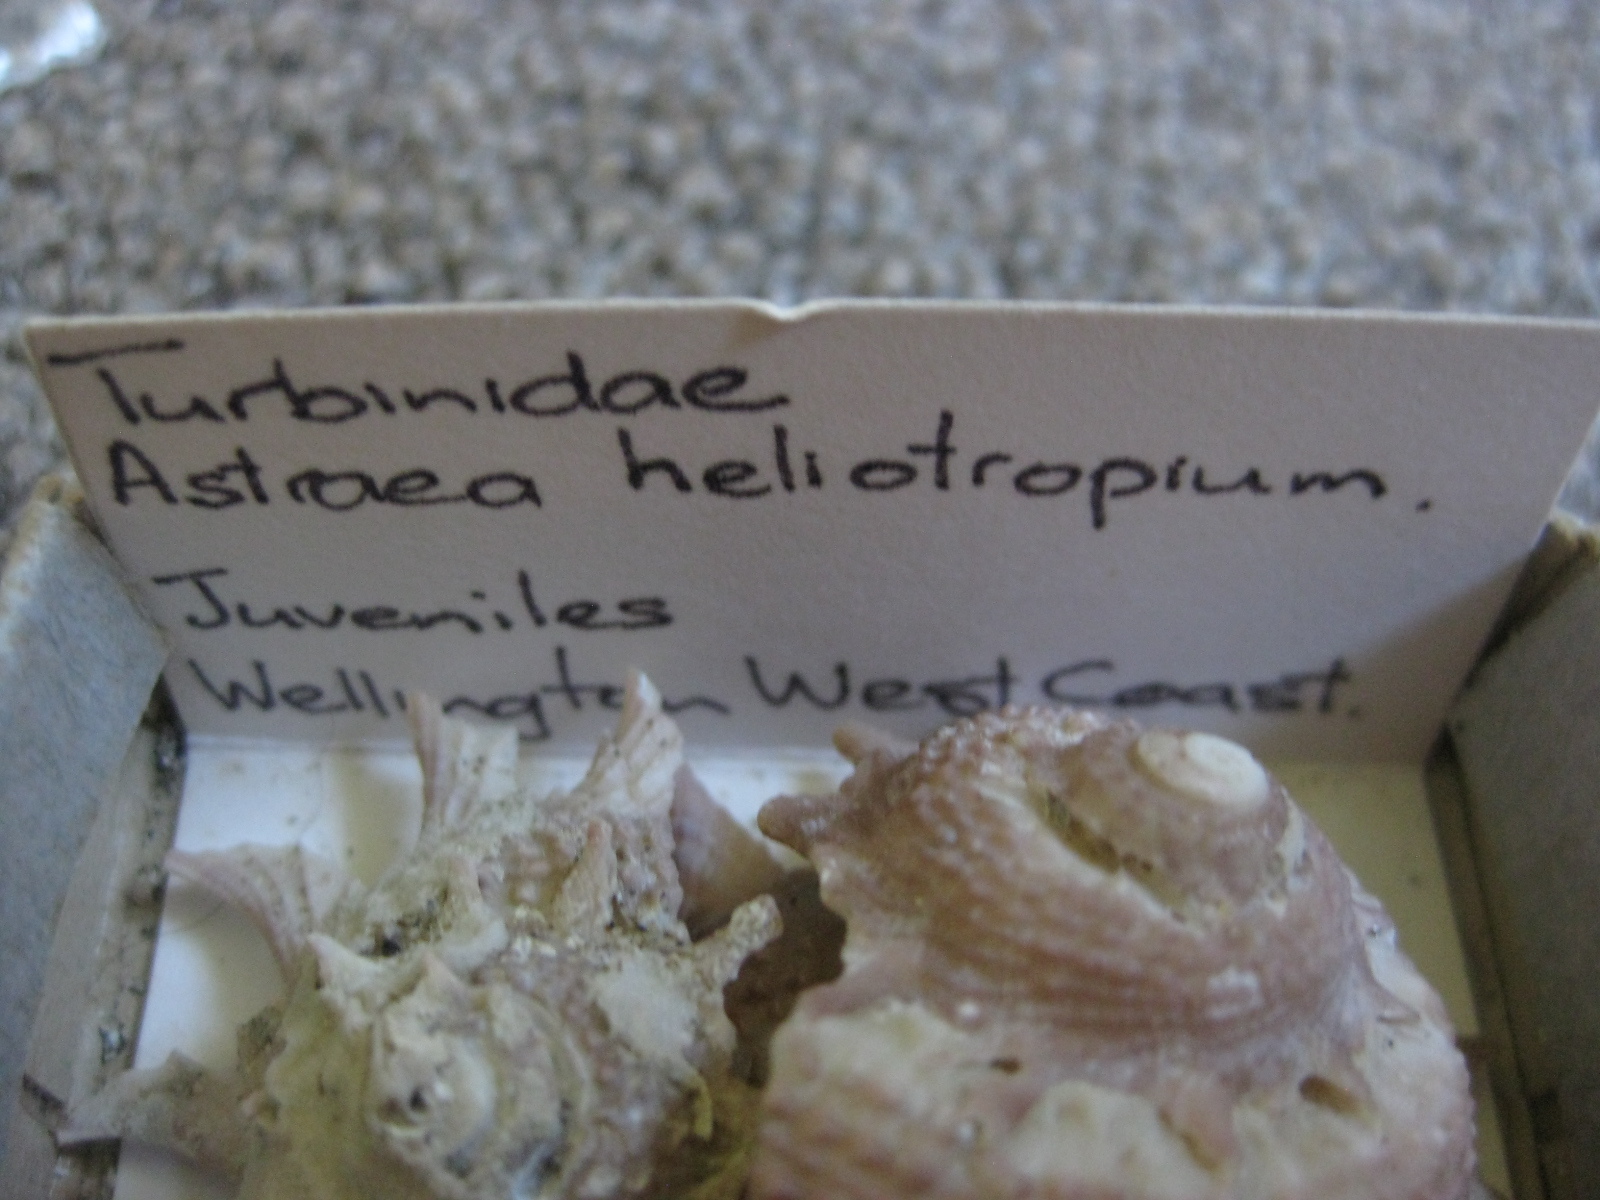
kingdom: Animalia
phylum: Mollusca
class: Gastropoda
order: Trochida
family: Turbinidae
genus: Astraea
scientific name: Astraea heliotropium
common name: Sun shell
